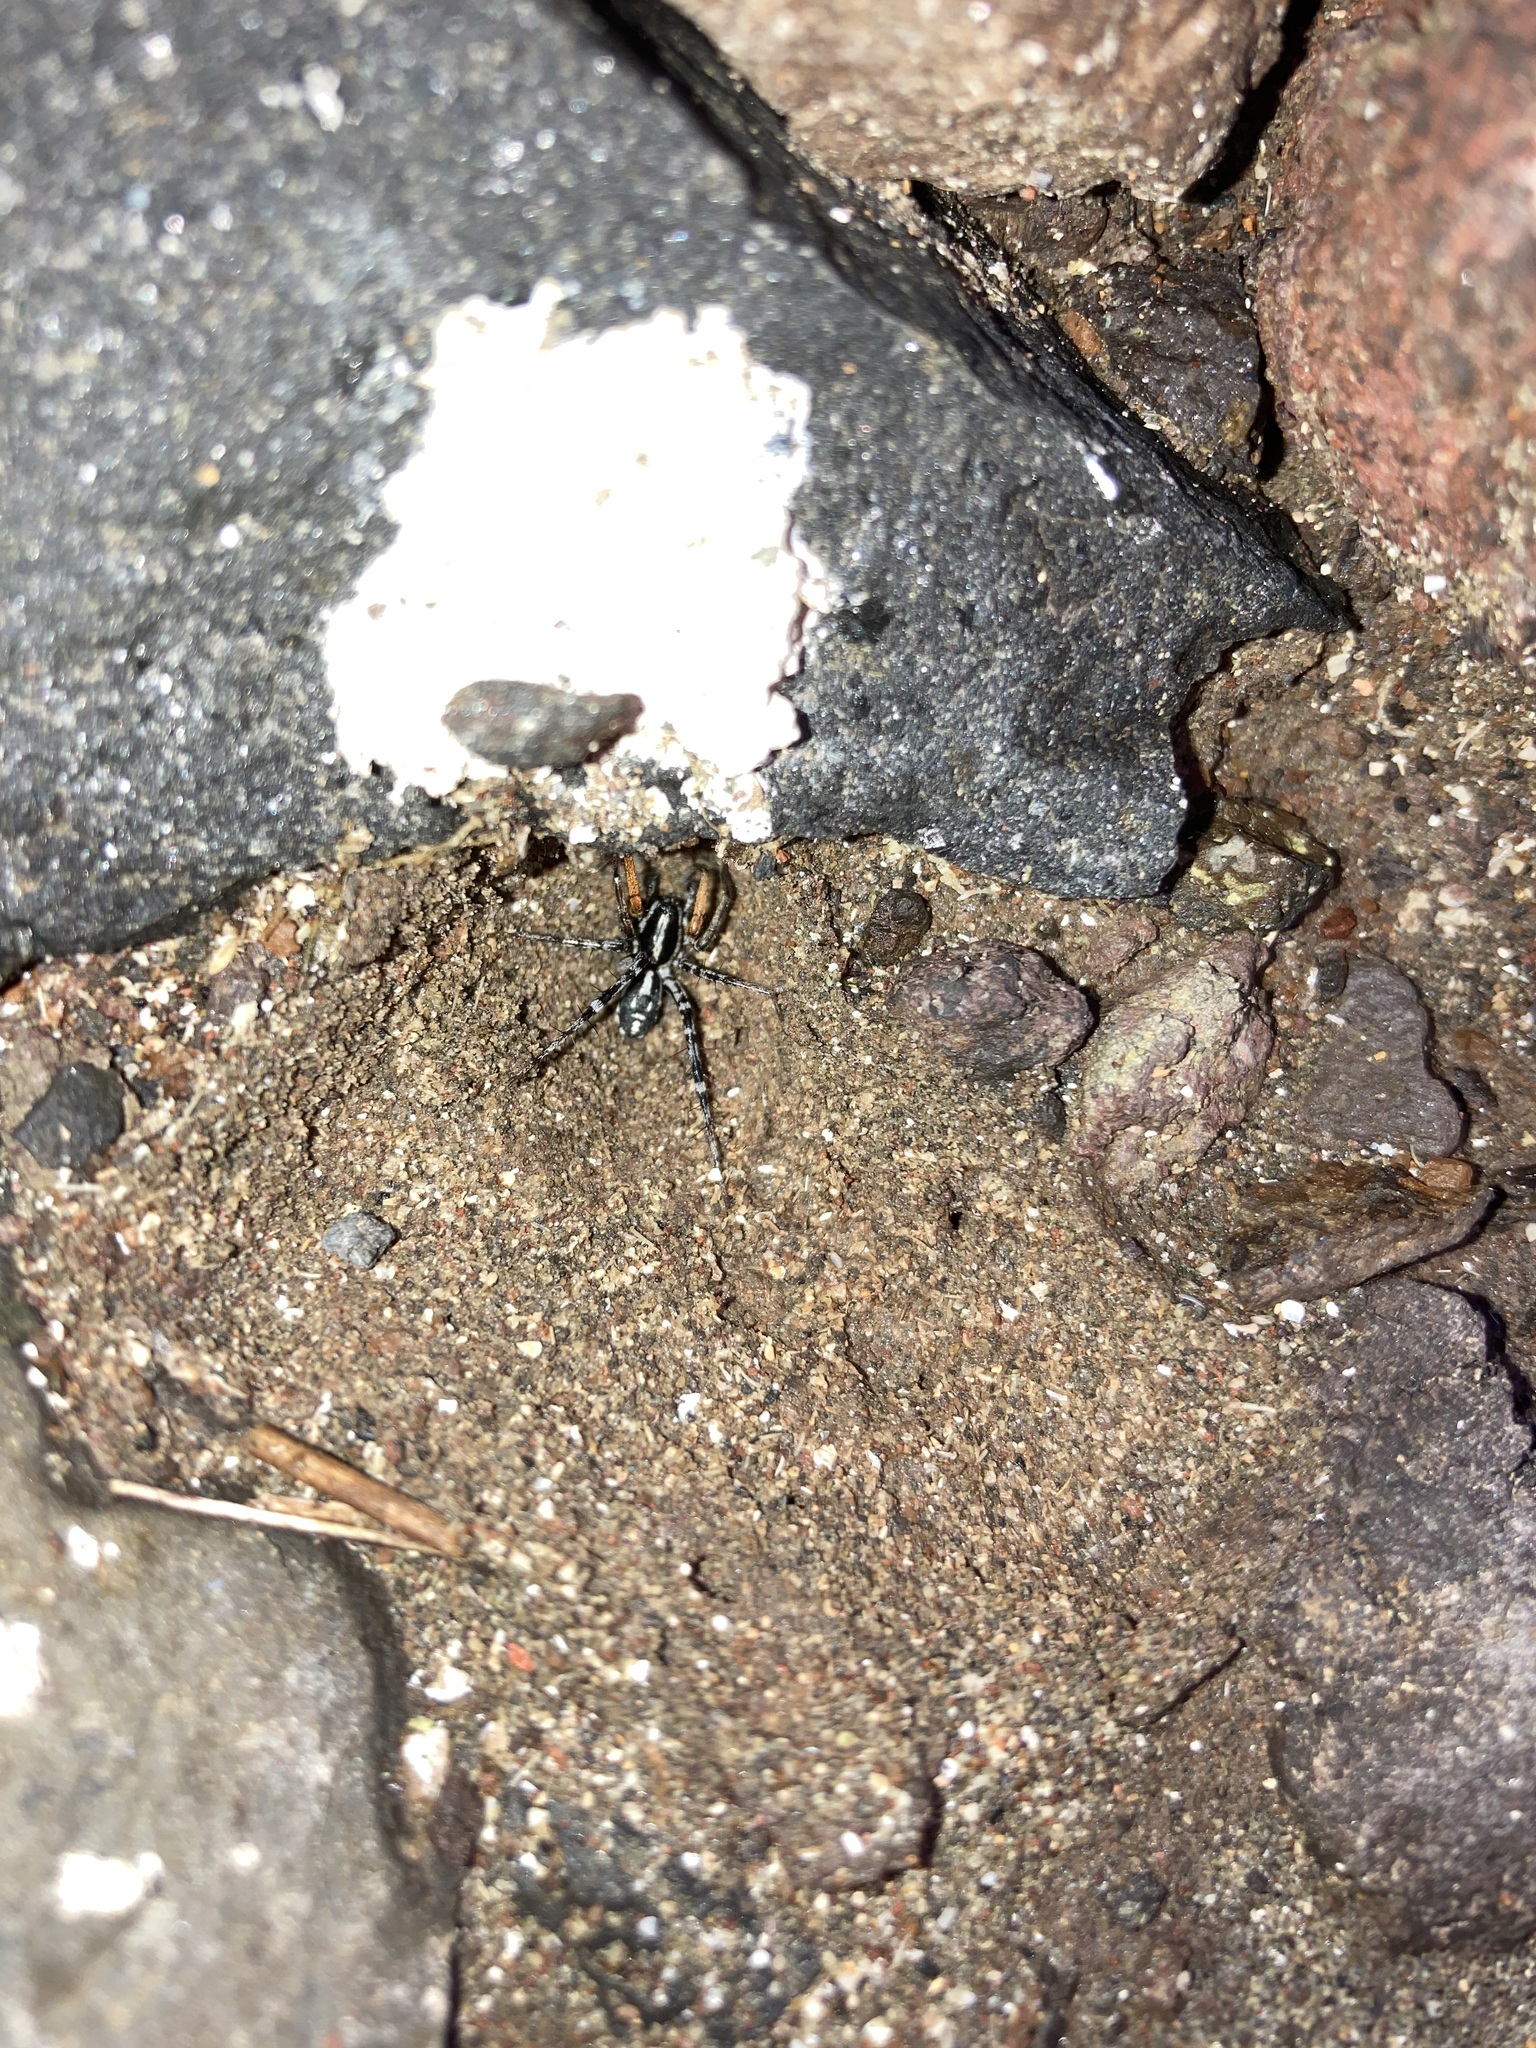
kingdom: Animalia
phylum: Arthropoda
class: Arachnida
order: Araneae
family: Corinnidae
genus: Nyssus
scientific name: Nyssus coloripes
